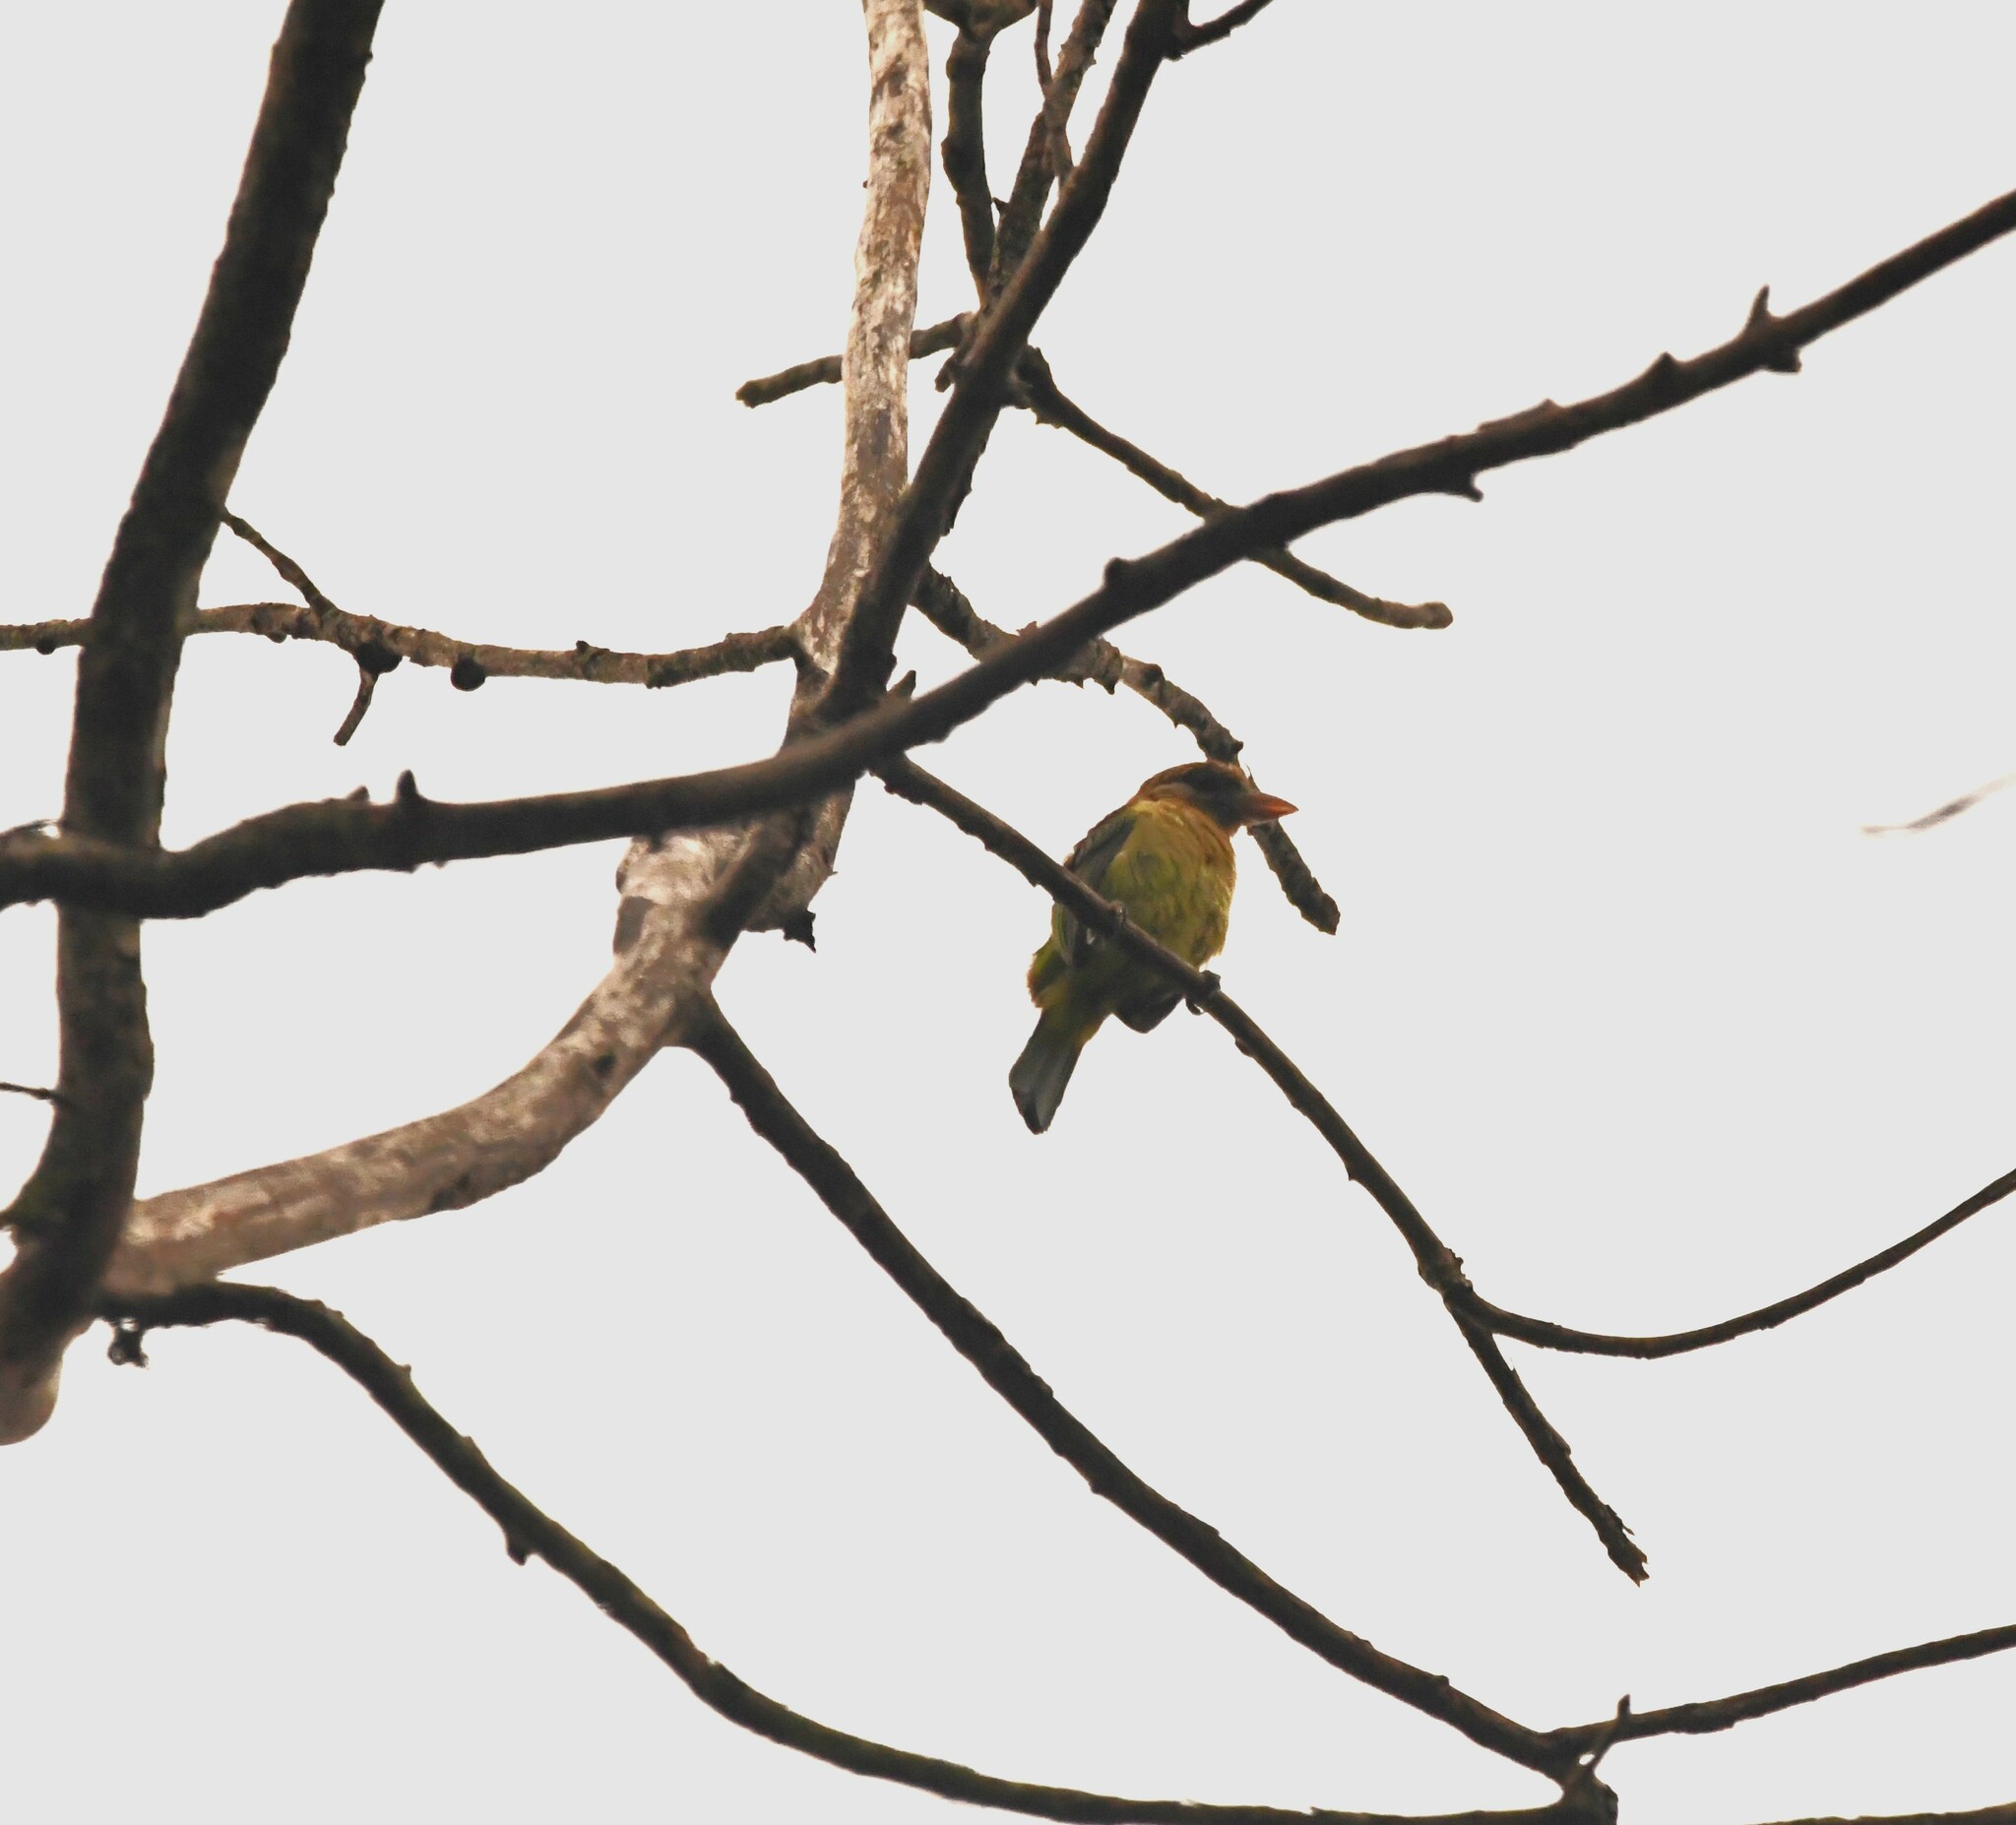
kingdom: Animalia
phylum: Chordata
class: Aves
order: Piciformes
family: Megalaimidae
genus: Psilopogon
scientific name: Psilopogon viridis
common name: White-cheeked barbet
